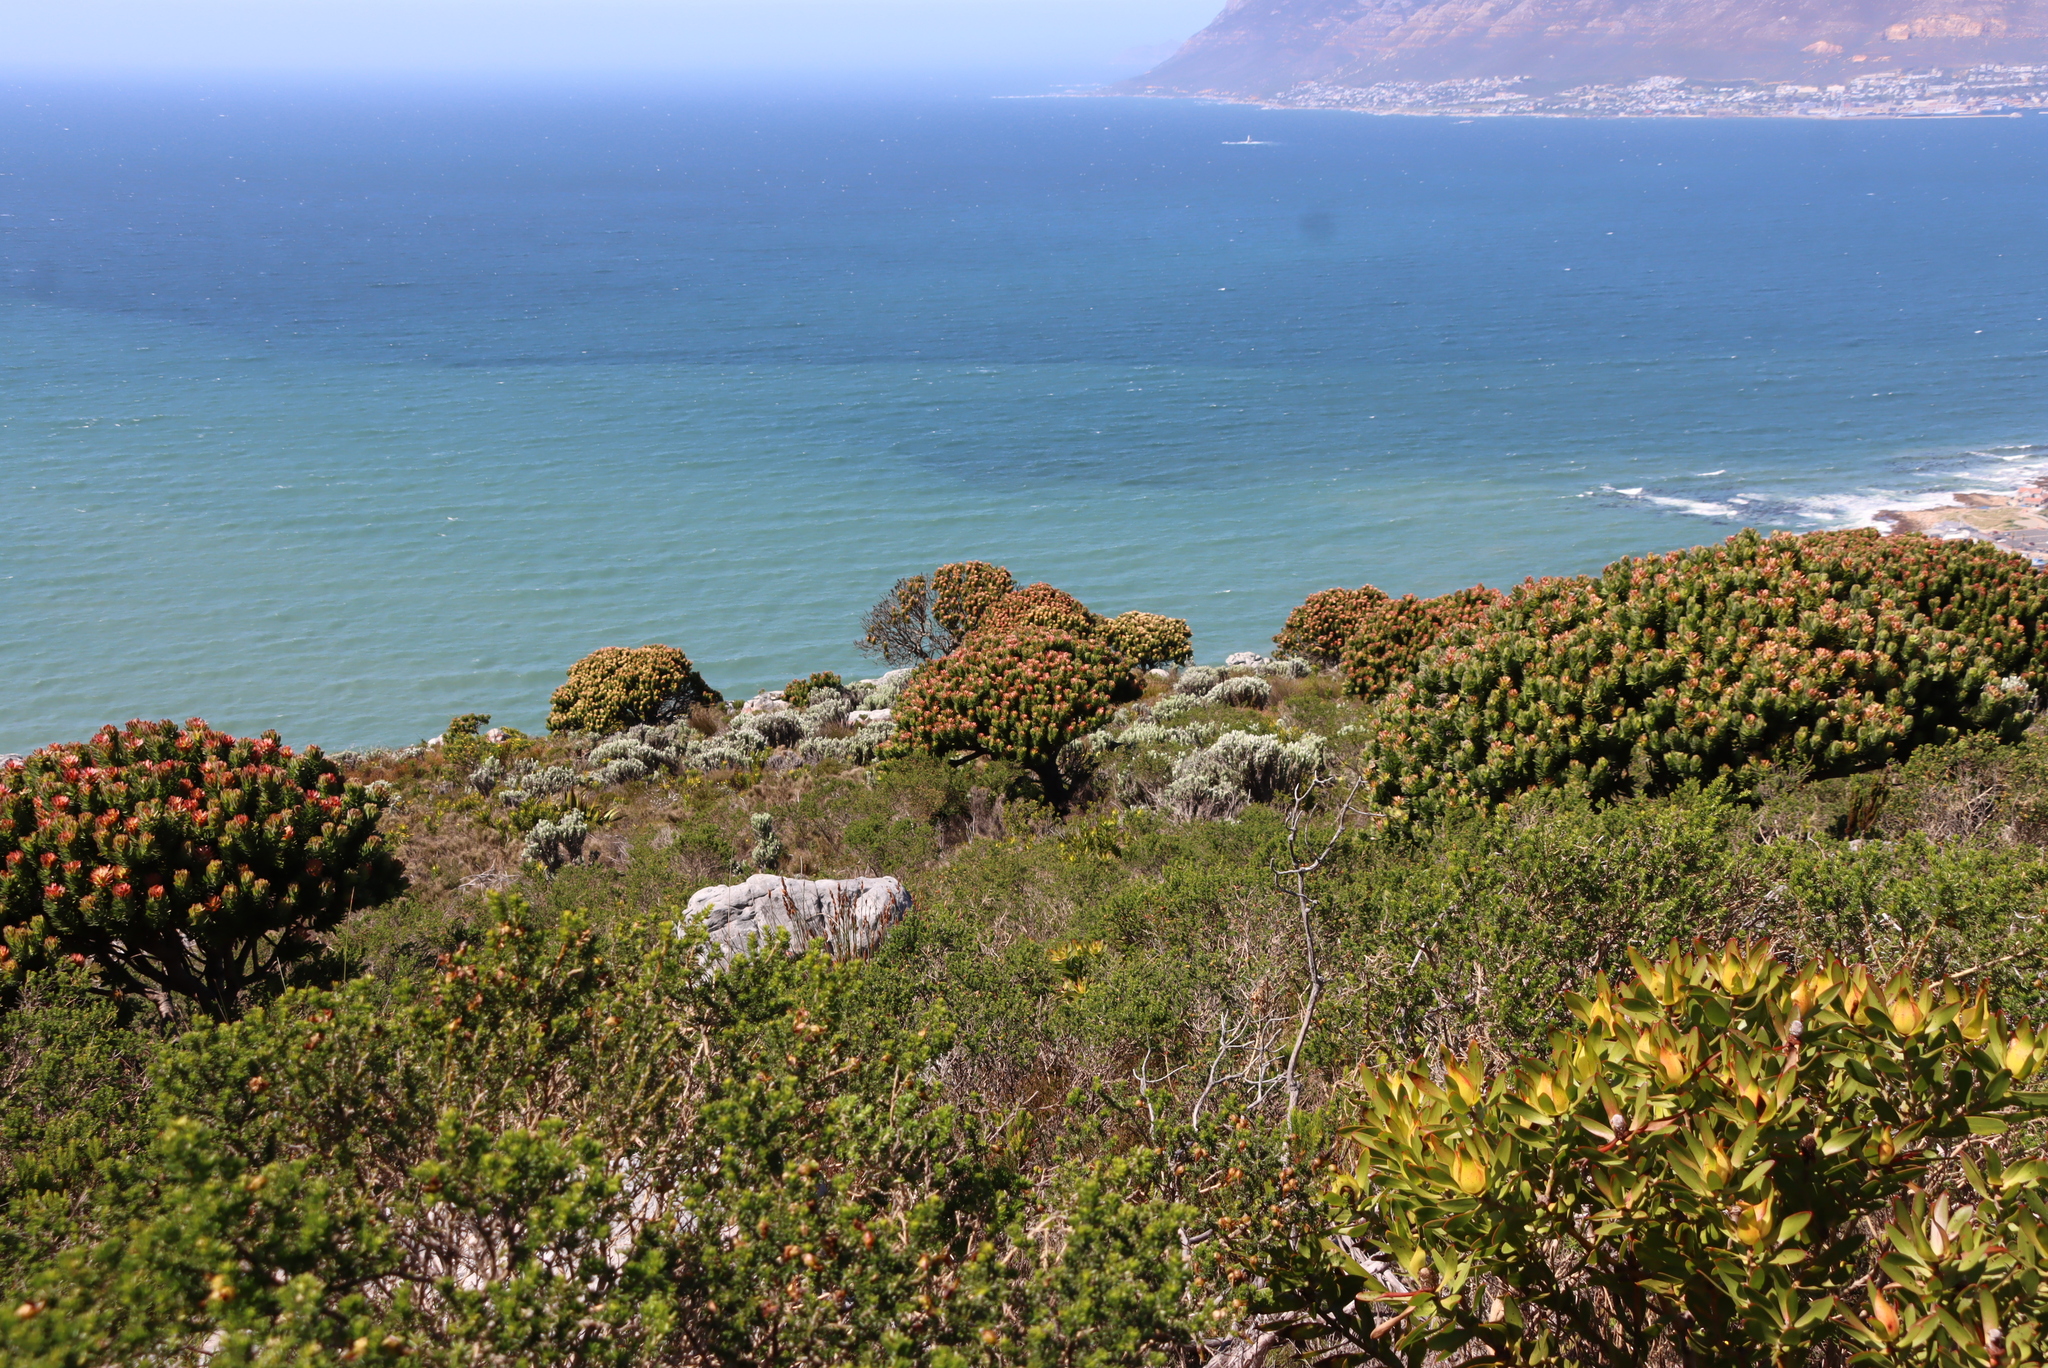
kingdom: Plantae
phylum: Tracheophyta
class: Magnoliopsida
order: Proteales
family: Proteaceae
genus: Mimetes
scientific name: Mimetes fimbriifolius
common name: Fringed bottlebrush
